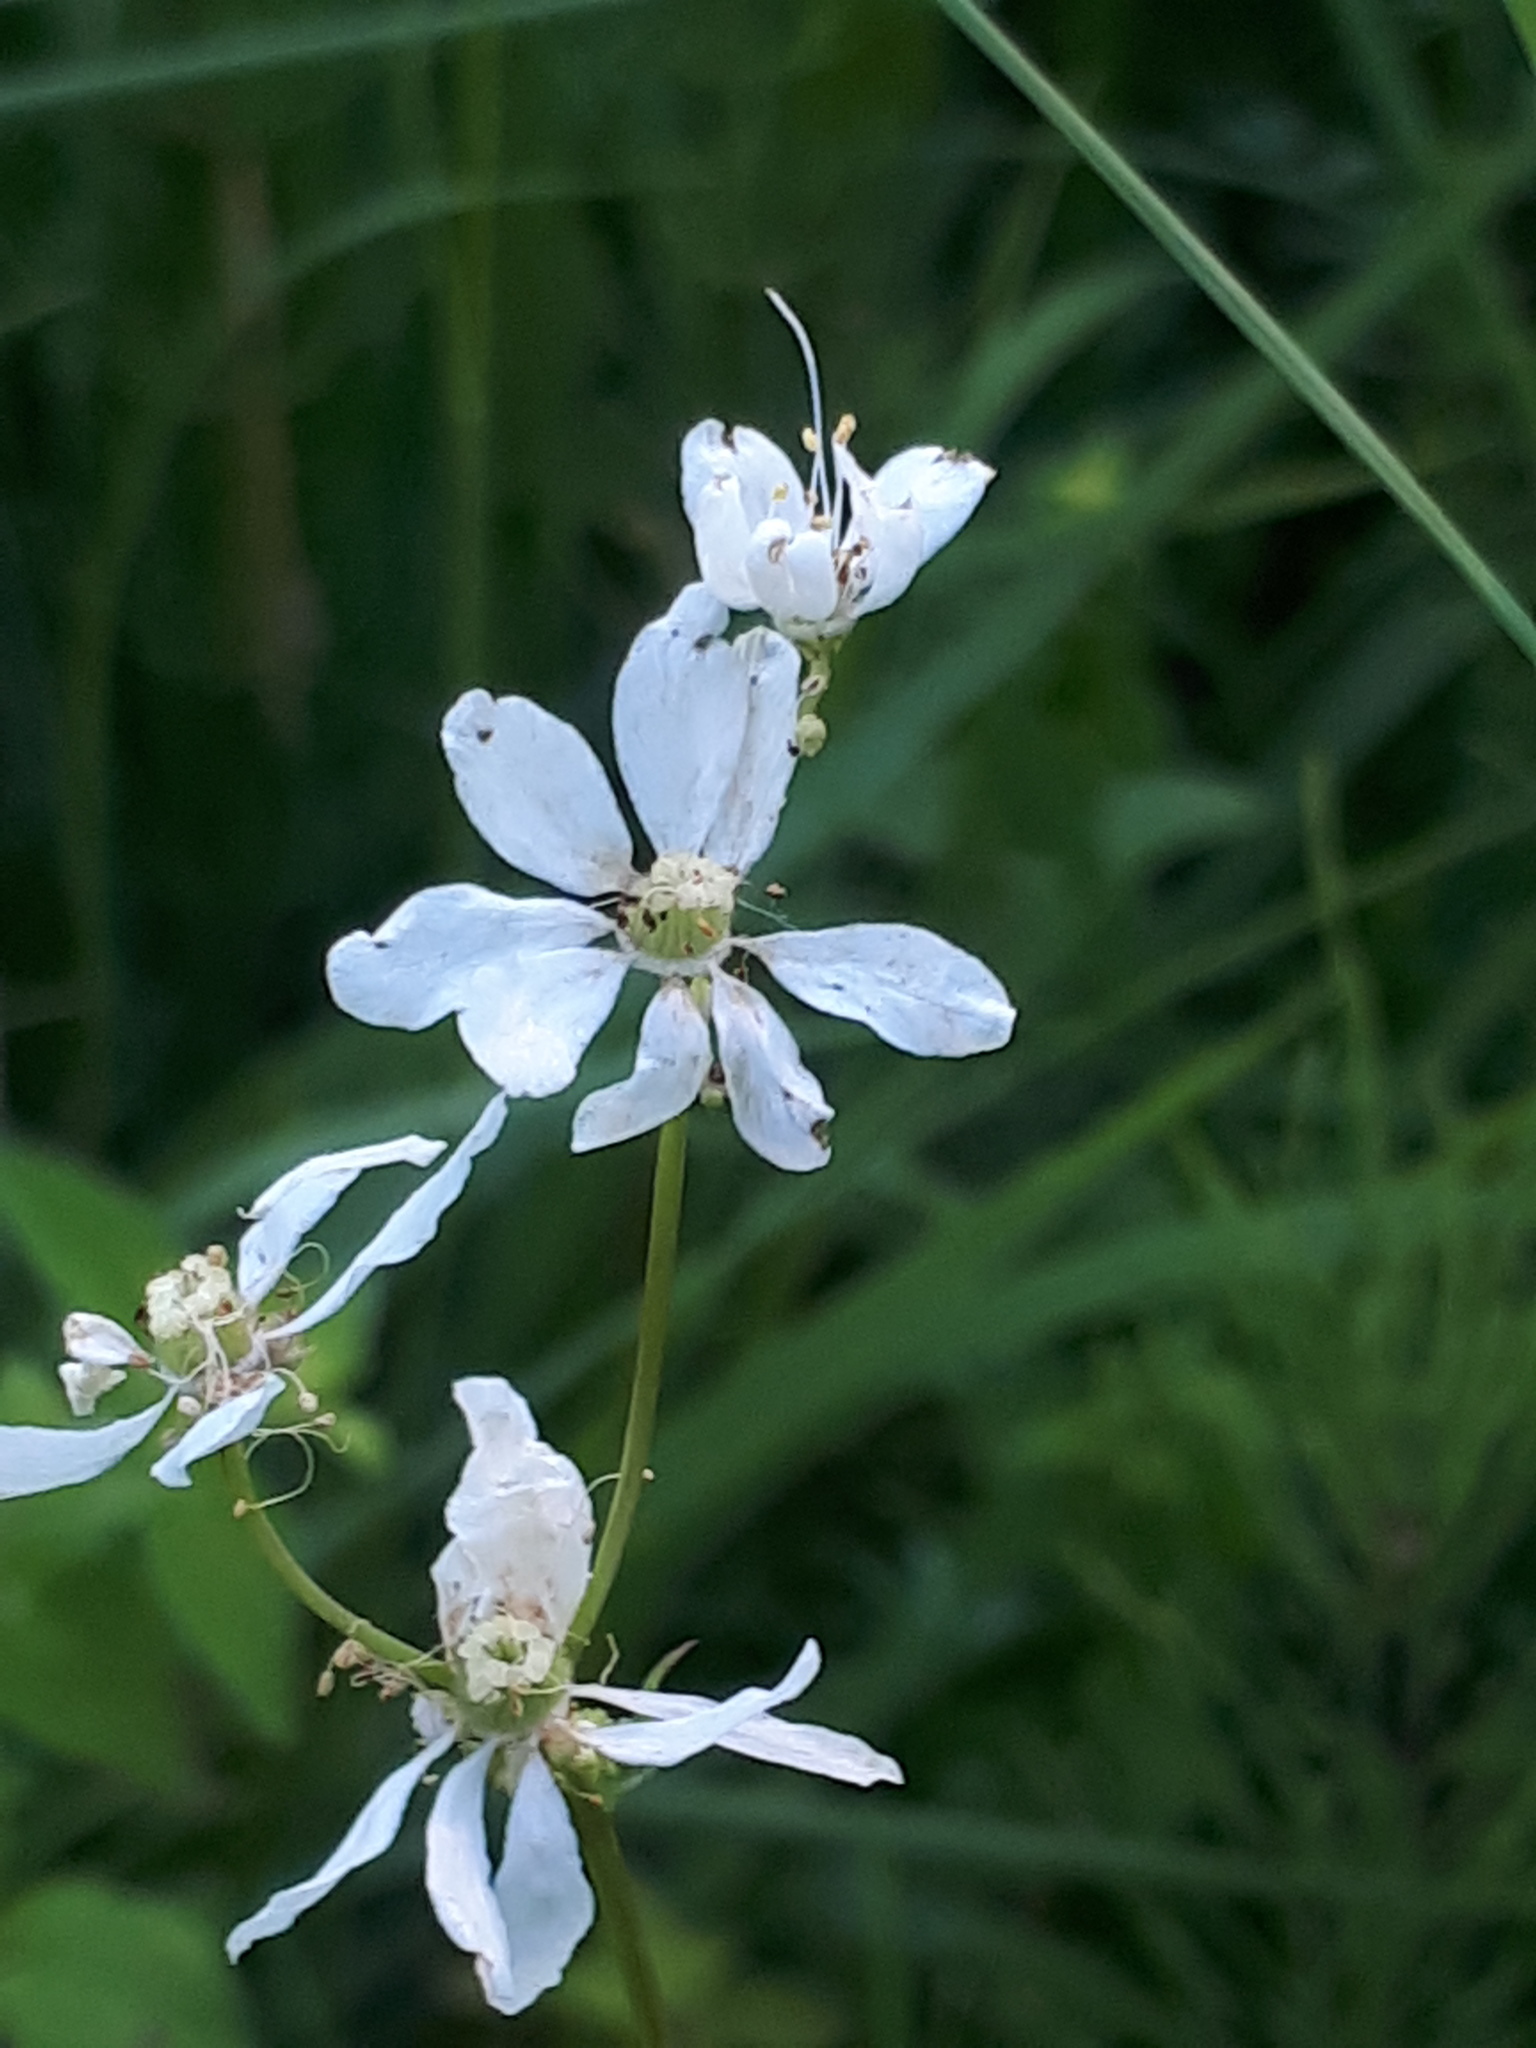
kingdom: Plantae
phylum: Tracheophyta
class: Magnoliopsida
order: Rosales
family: Rosaceae
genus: Filipendula
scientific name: Filipendula vulgaris
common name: Dropwort
